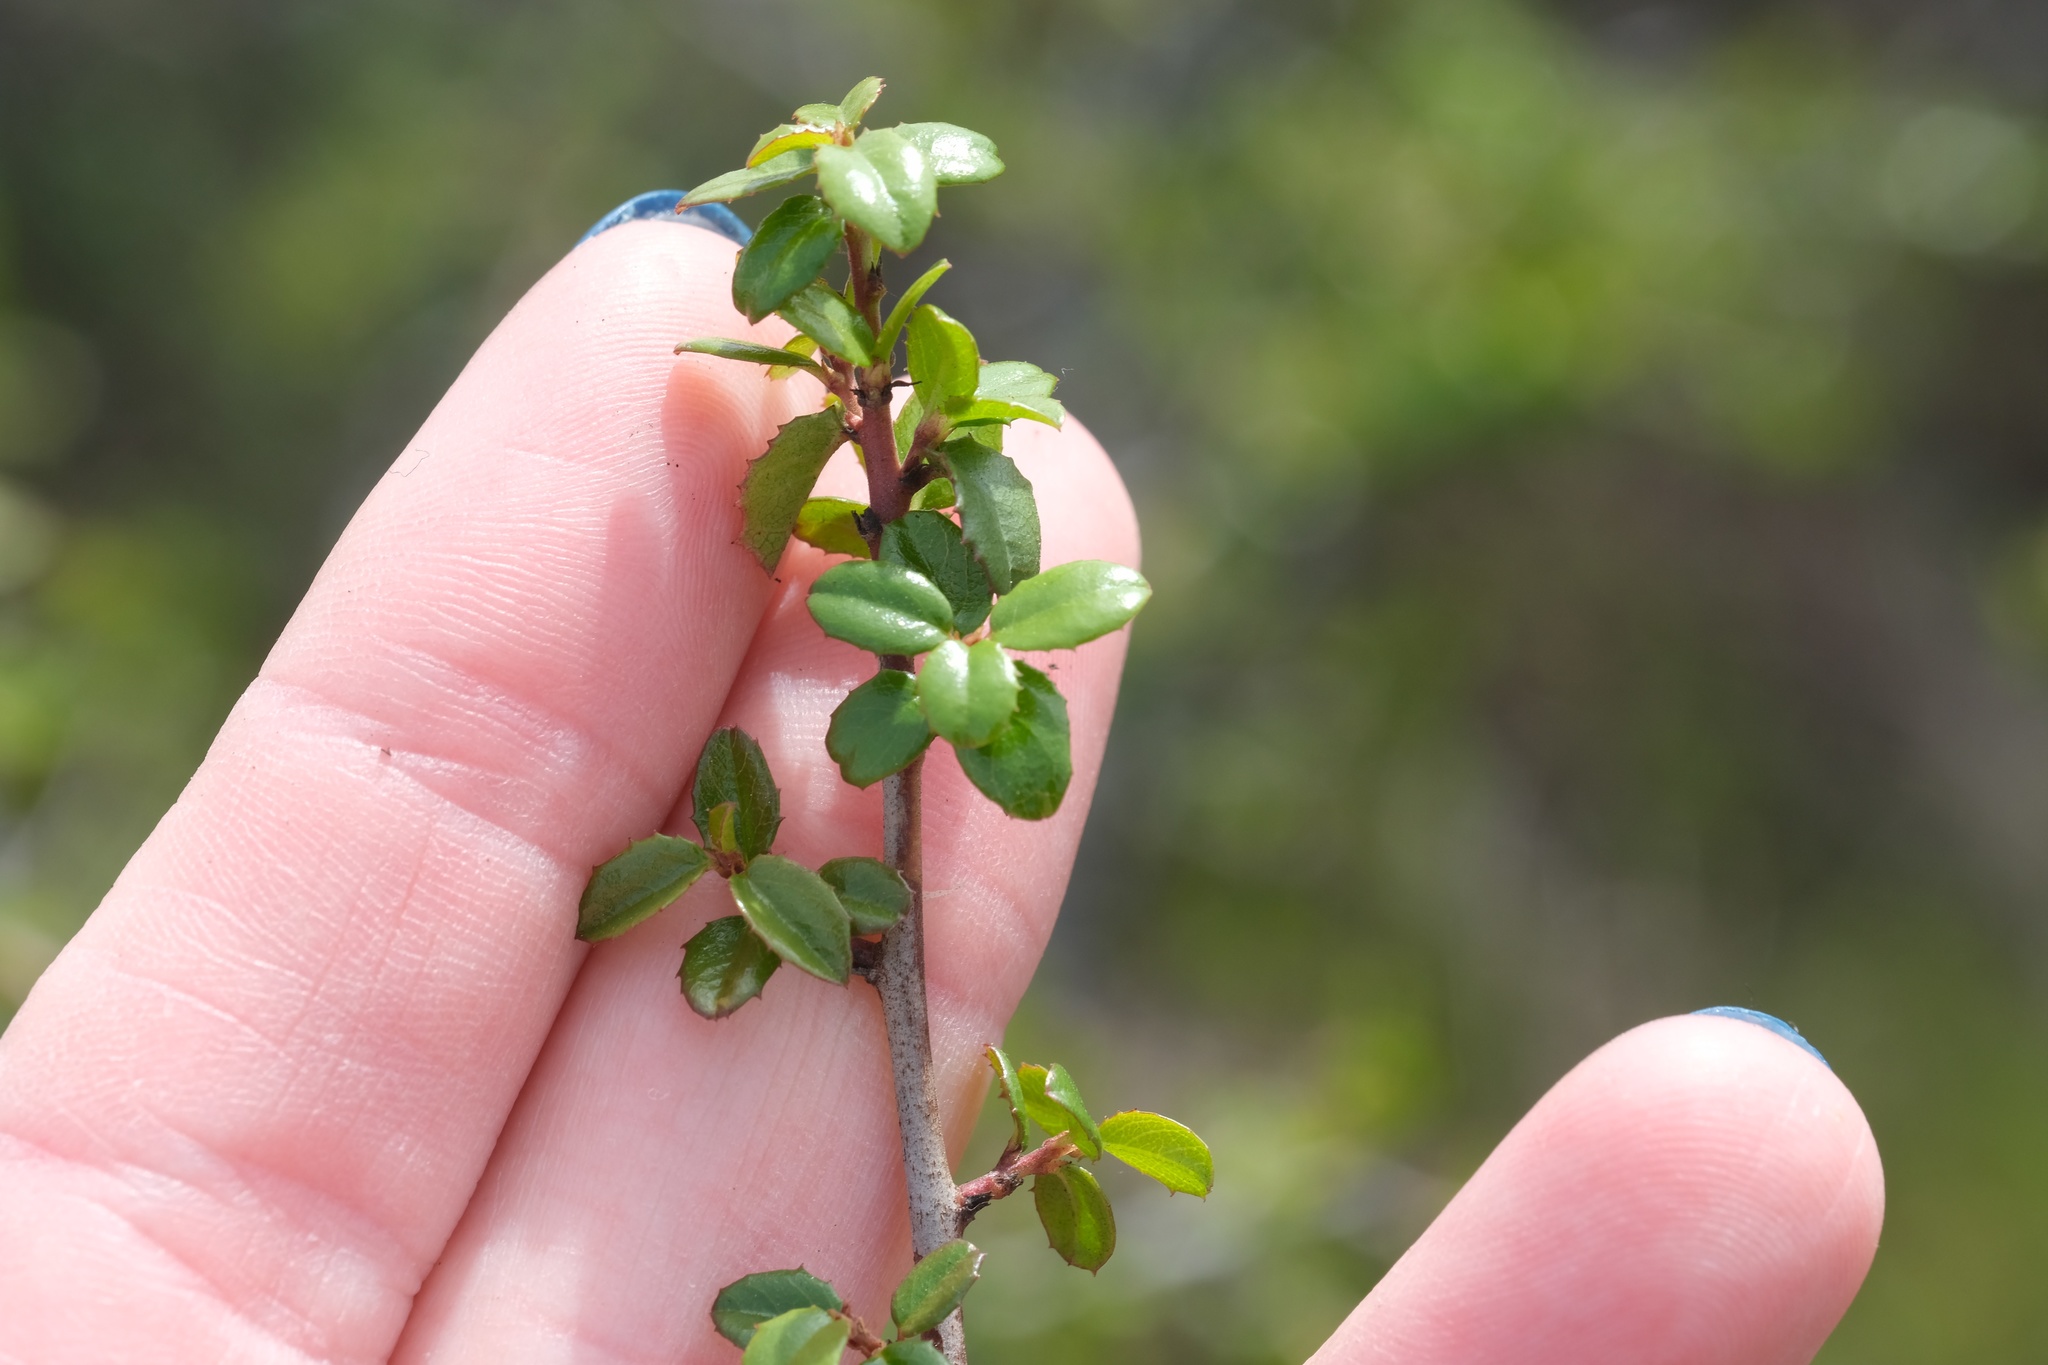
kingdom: Plantae
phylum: Tracheophyta
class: Magnoliopsida
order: Rosales
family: Rhamnaceae
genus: Endotropis
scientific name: Endotropis crocea
